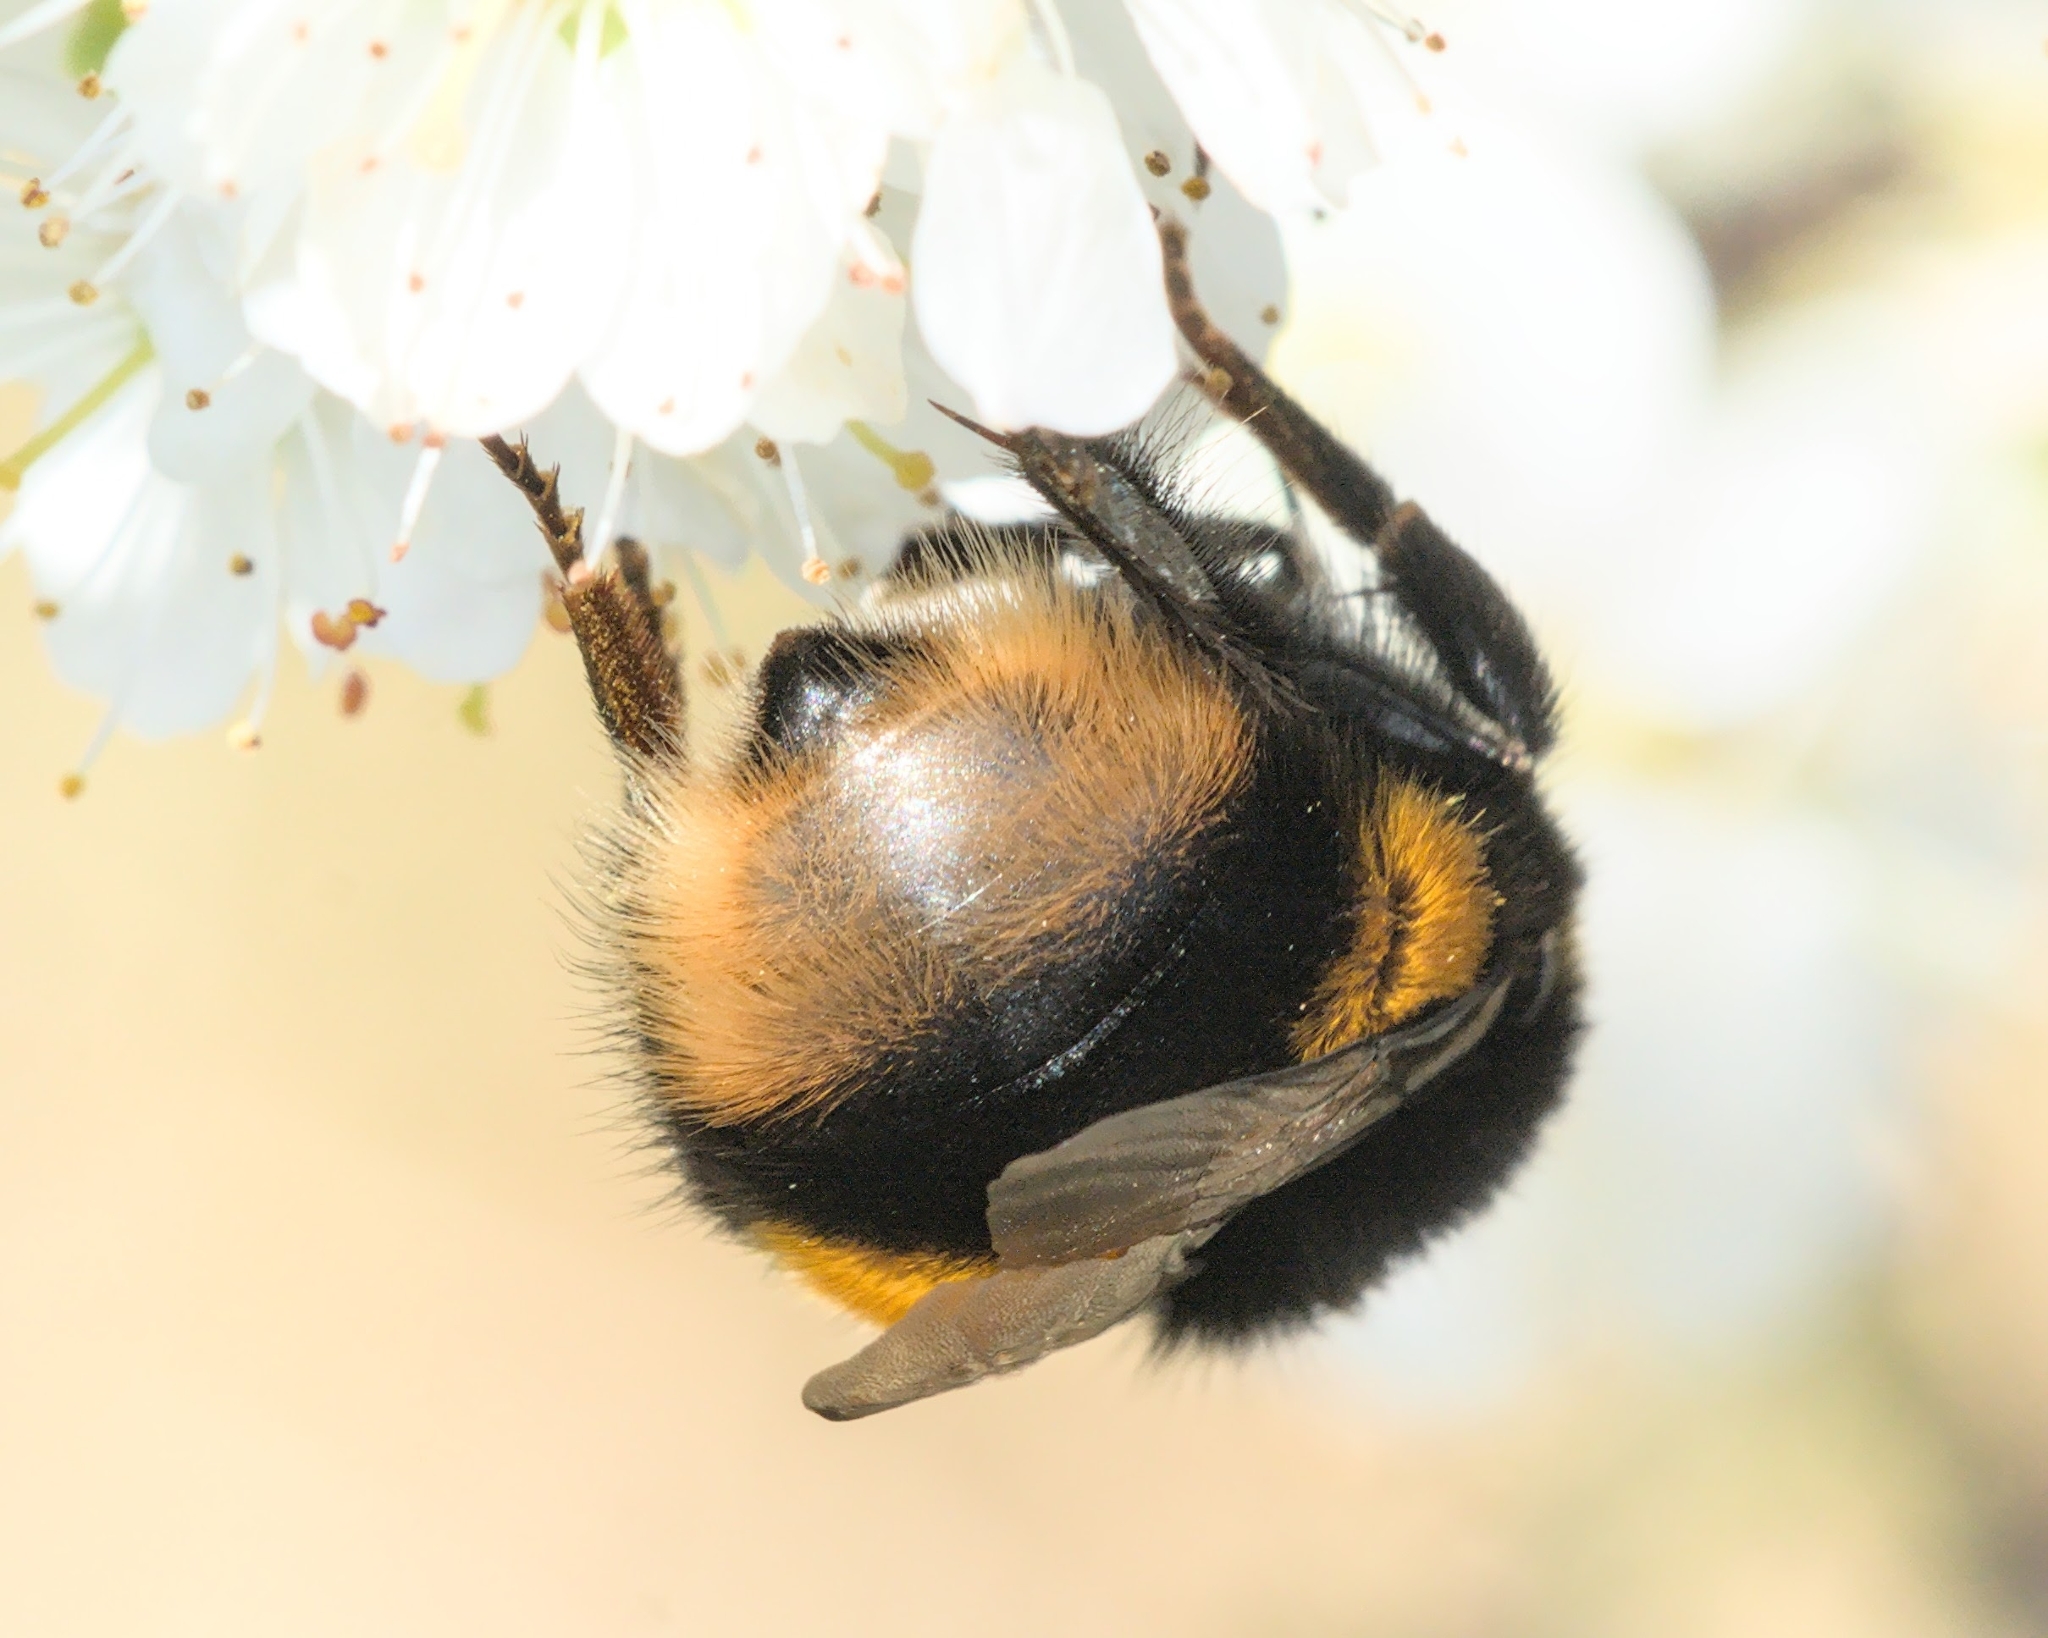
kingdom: Animalia
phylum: Arthropoda
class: Insecta
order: Hymenoptera
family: Apidae
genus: Bombus
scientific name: Bombus terrestris
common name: Buff-tailed bumblebee
